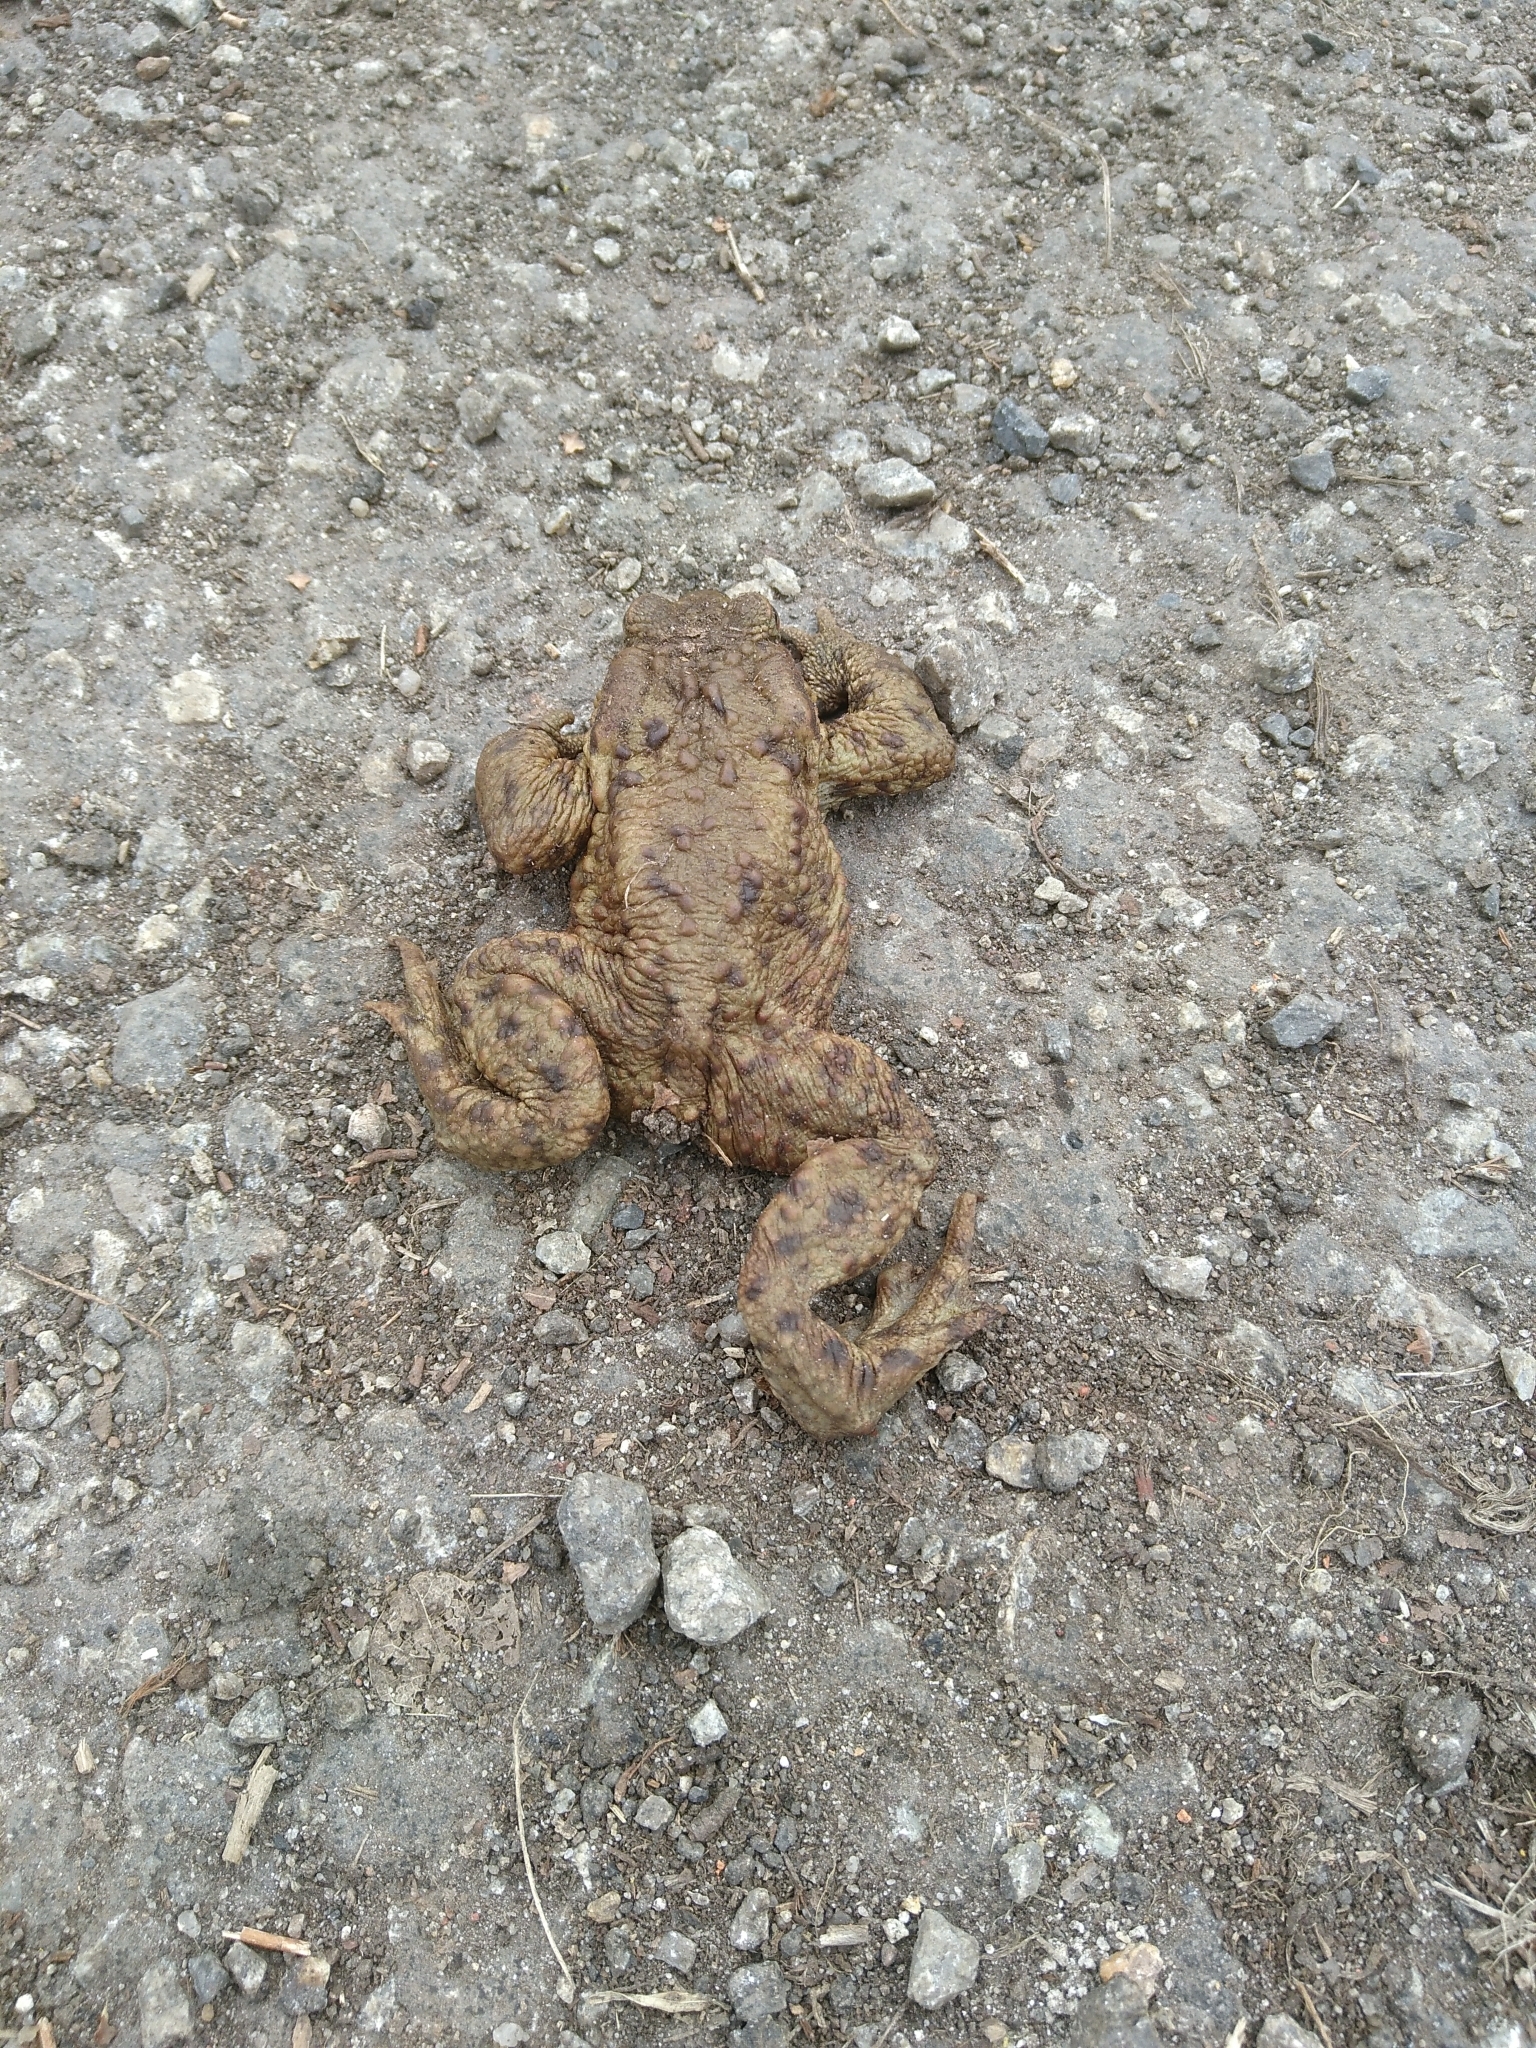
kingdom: Animalia
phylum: Chordata
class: Amphibia
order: Anura
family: Bufonidae
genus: Bufo
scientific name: Bufo bufo
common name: Common toad
